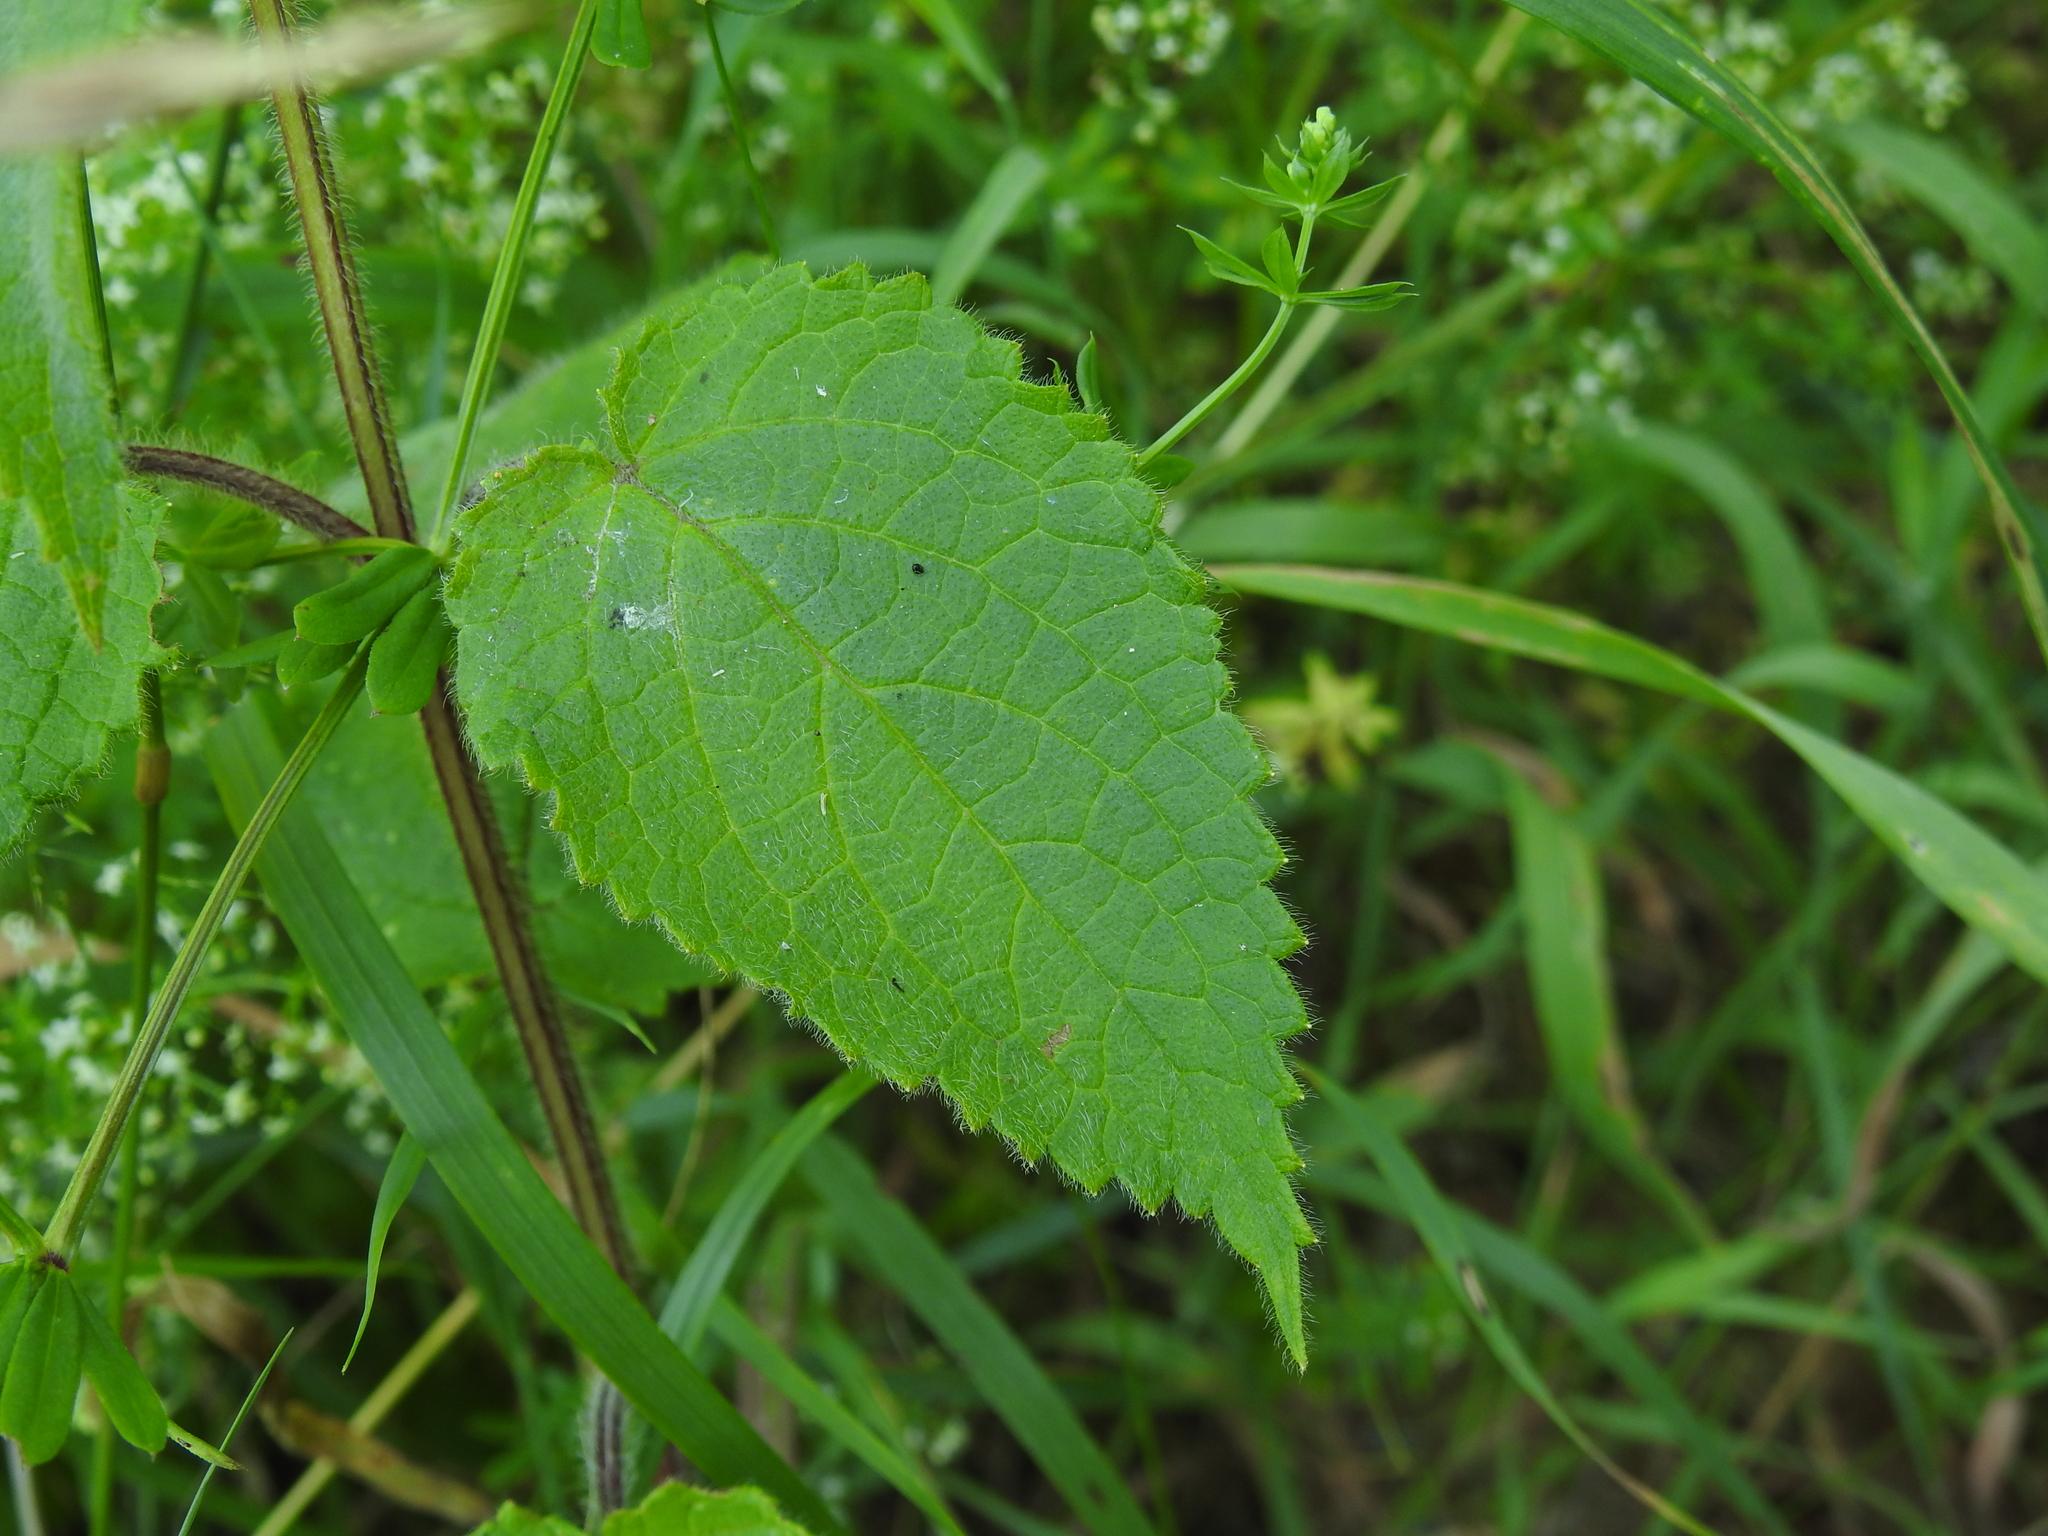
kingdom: Plantae
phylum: Tracheophyta
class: Magnoliopsida
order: Lamiales
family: Lamiaceae
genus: Stachys
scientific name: Stachys sylvatica
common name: Hedge woundwort
